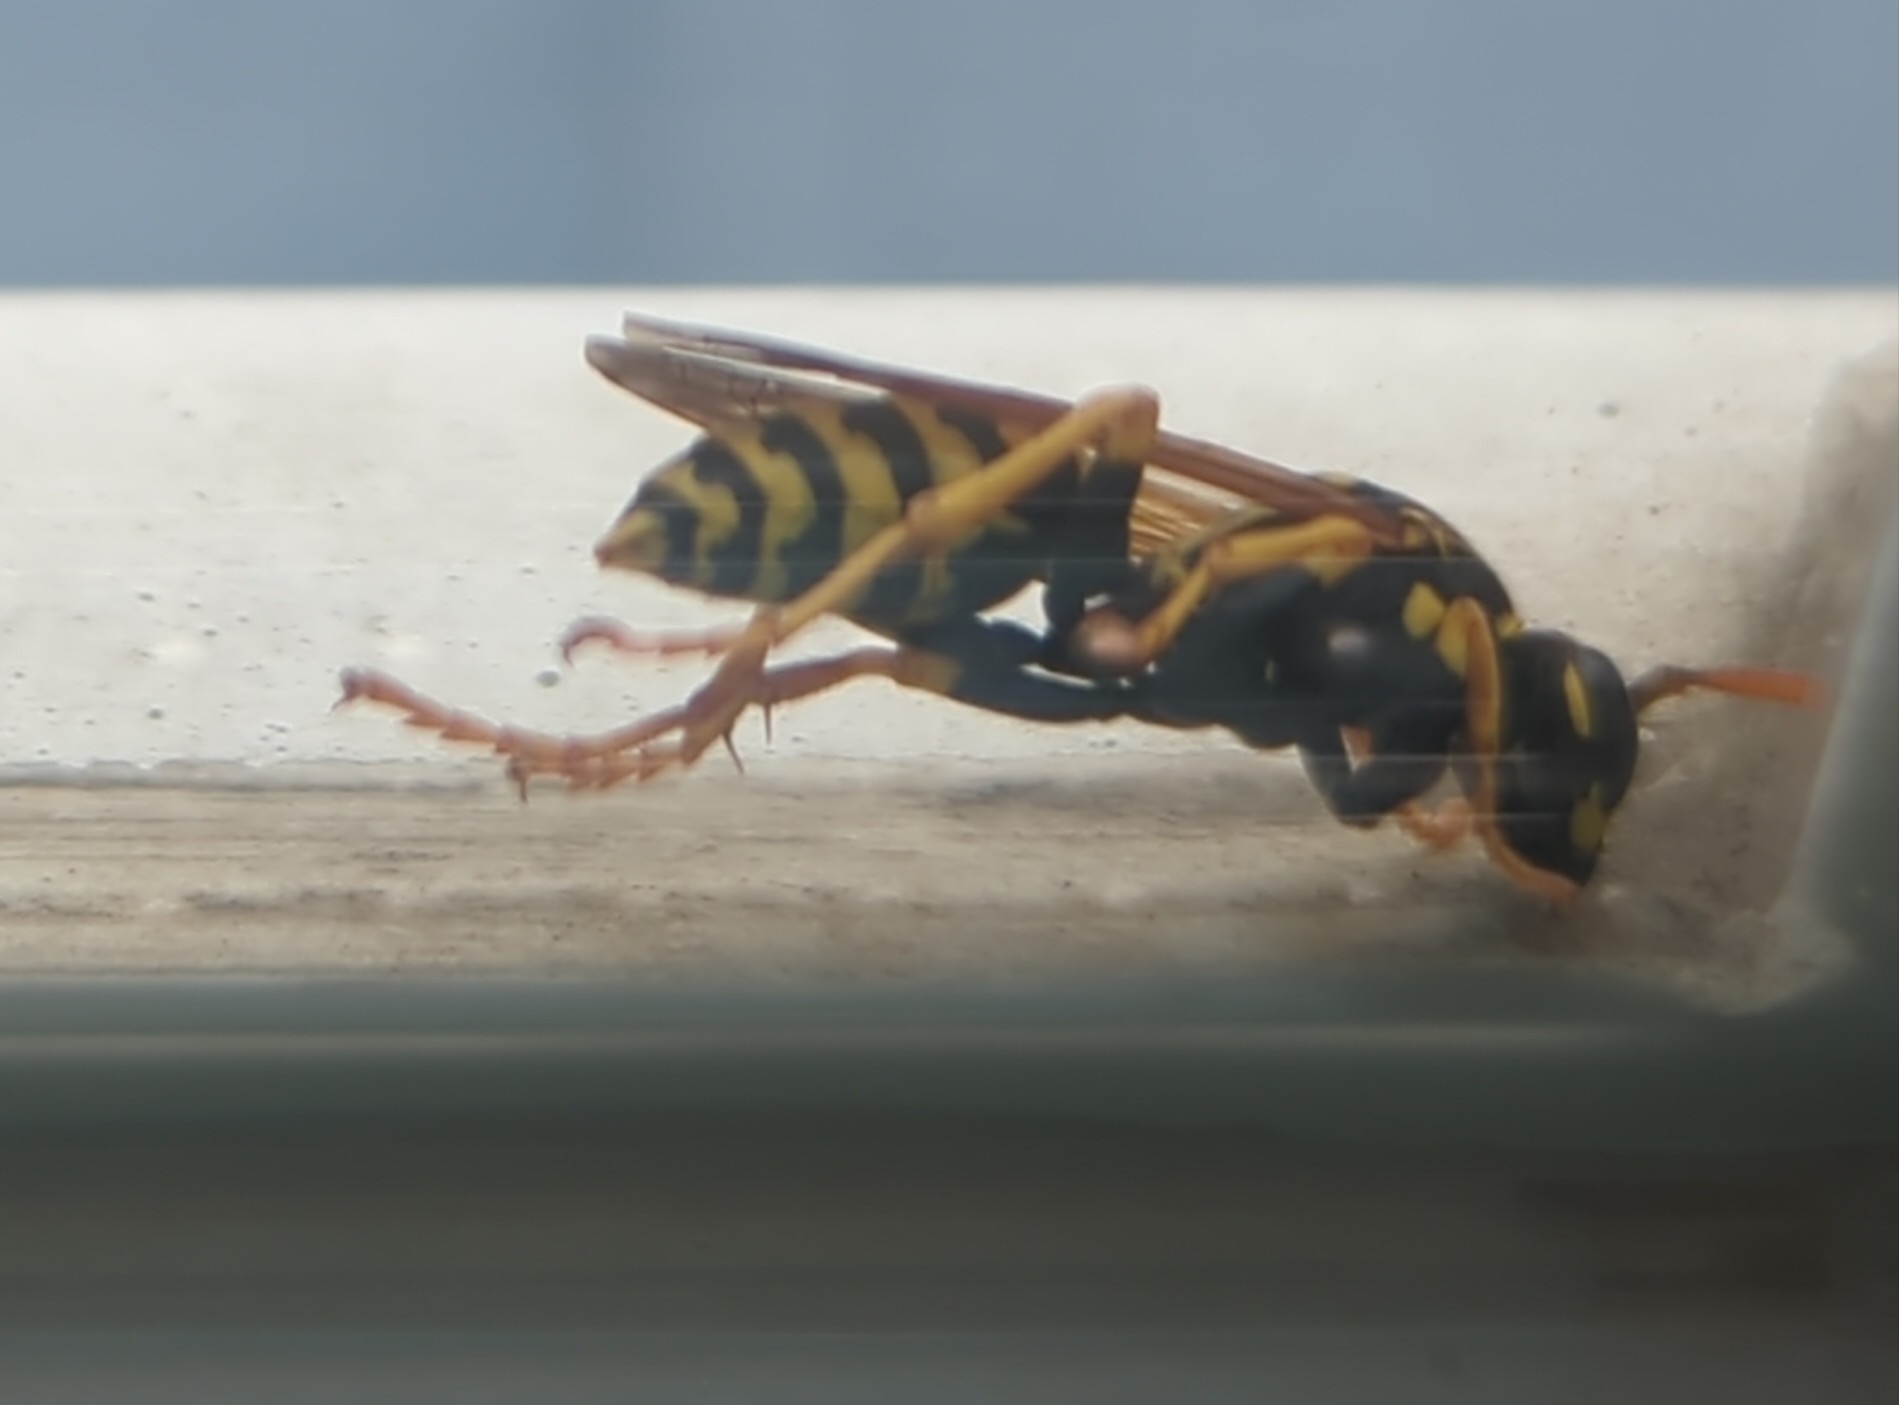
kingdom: Animalia
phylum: Arthropoda
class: Insecta
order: Hymenoptera
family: Eumenidae
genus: Polistes
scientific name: Polistes dominula
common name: Paper wasp
